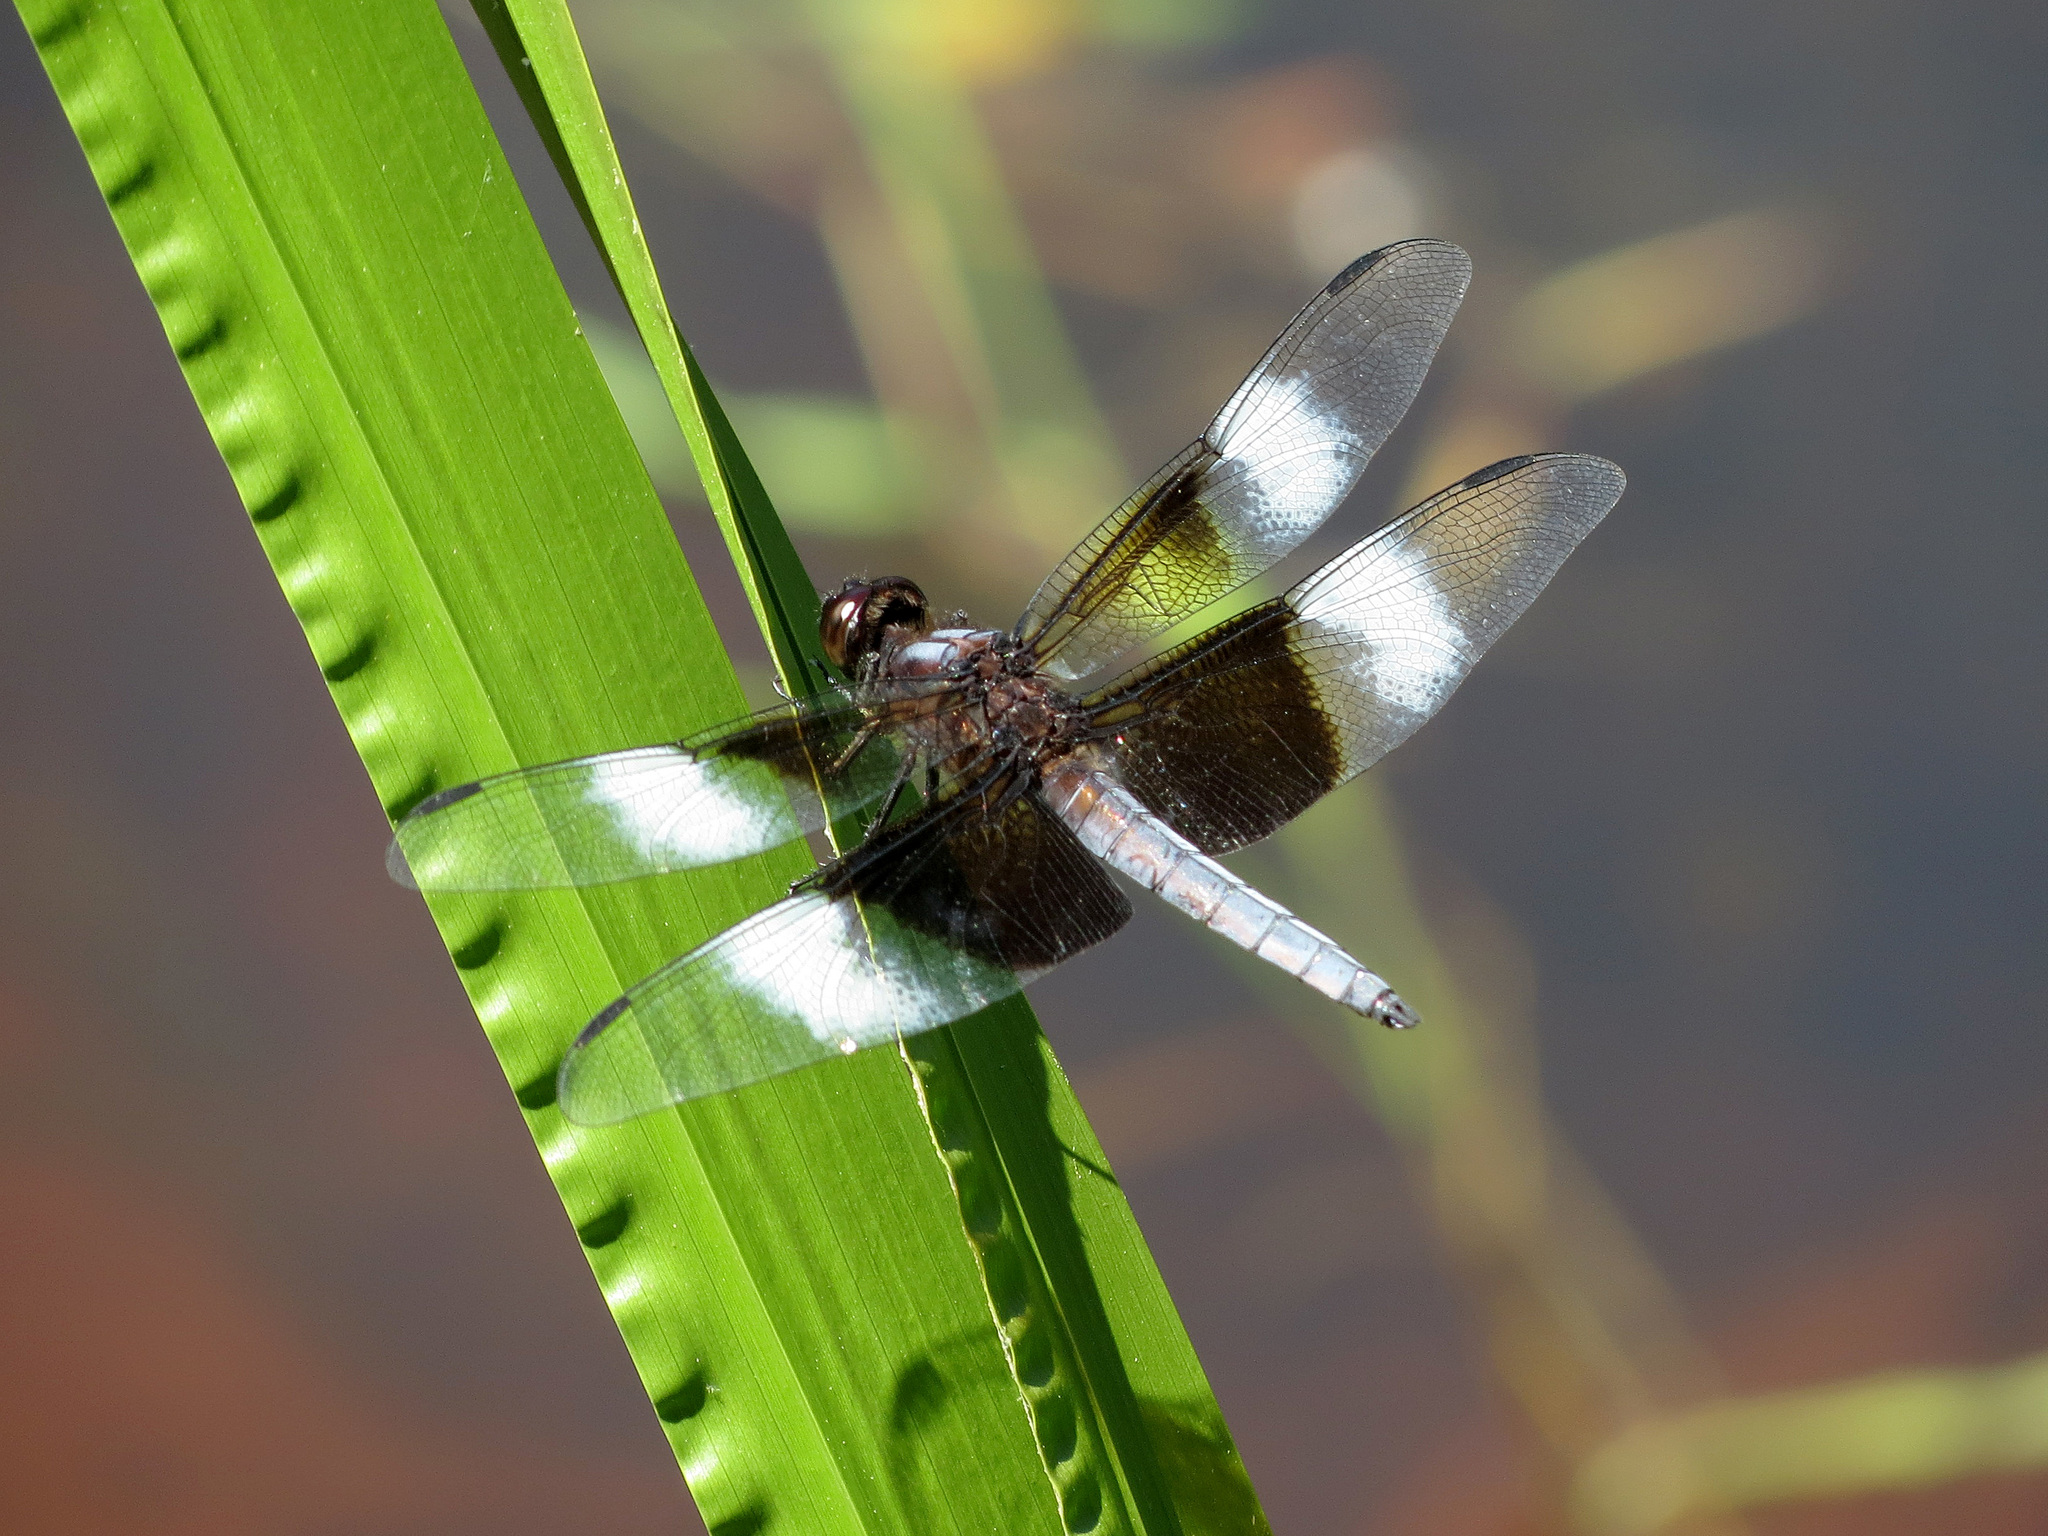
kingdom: Animalia
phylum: Arthropoda
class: Insecta
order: Odonata
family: Libellulidae
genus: Libellula
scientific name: Libellula luctuosa
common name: Widow skimmer
